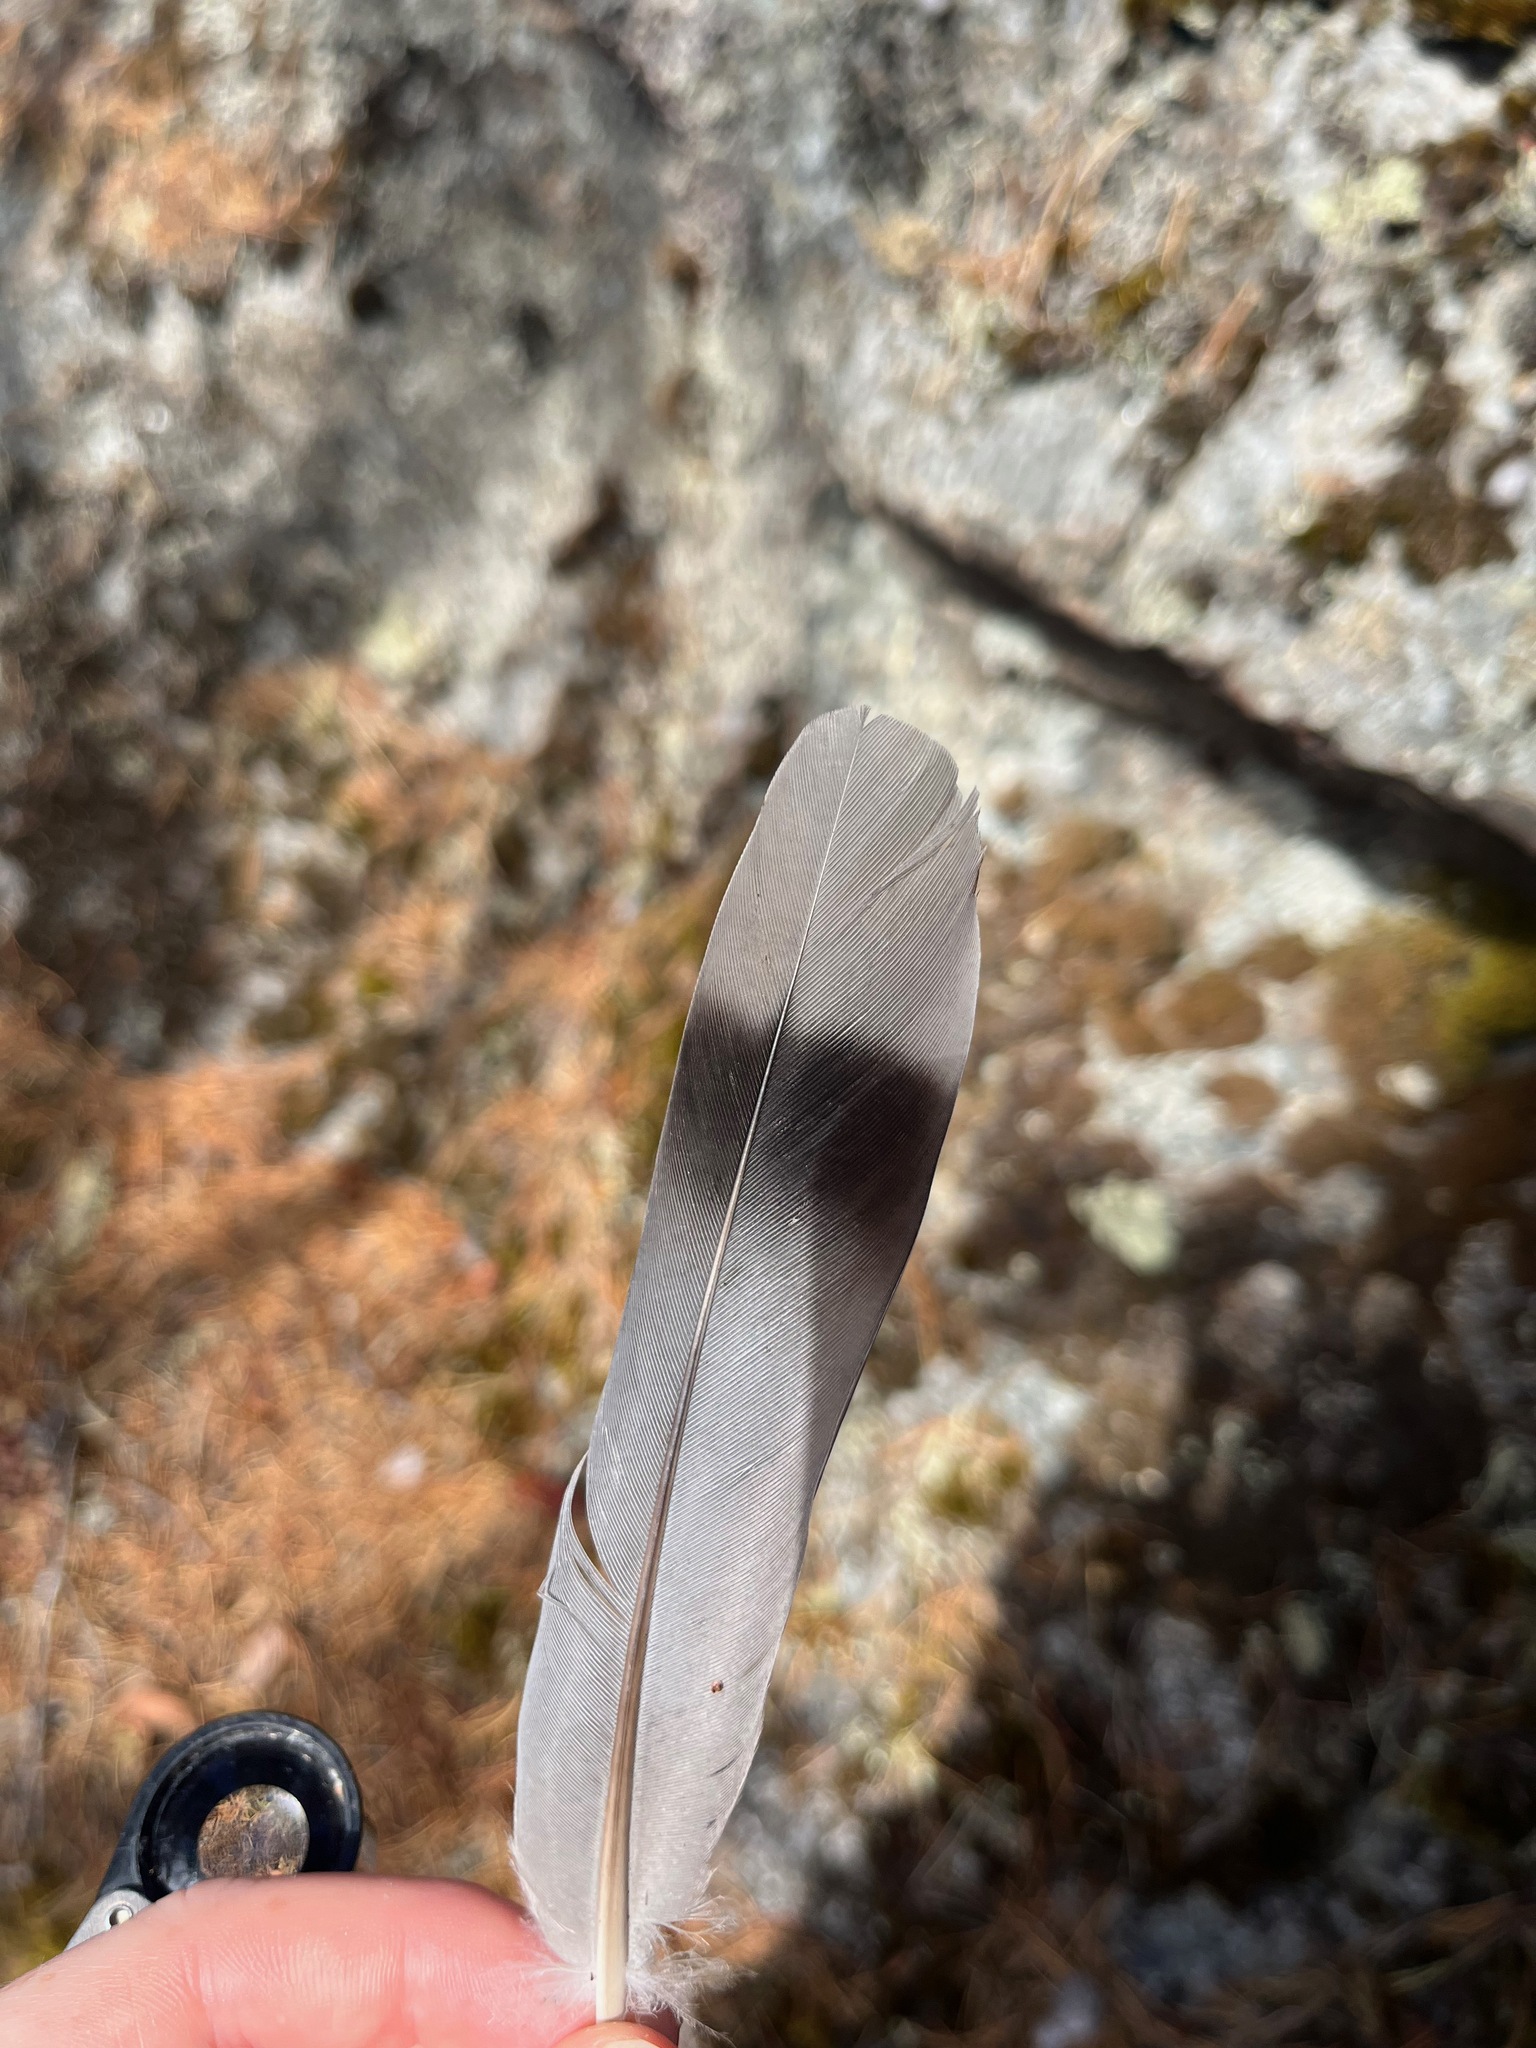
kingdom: Animalia
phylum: Chordata
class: Aves
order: Columbiformes
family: Columbidae
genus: Patagioenas
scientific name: Patagioenas fasciata
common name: Band-tailed pigeon
